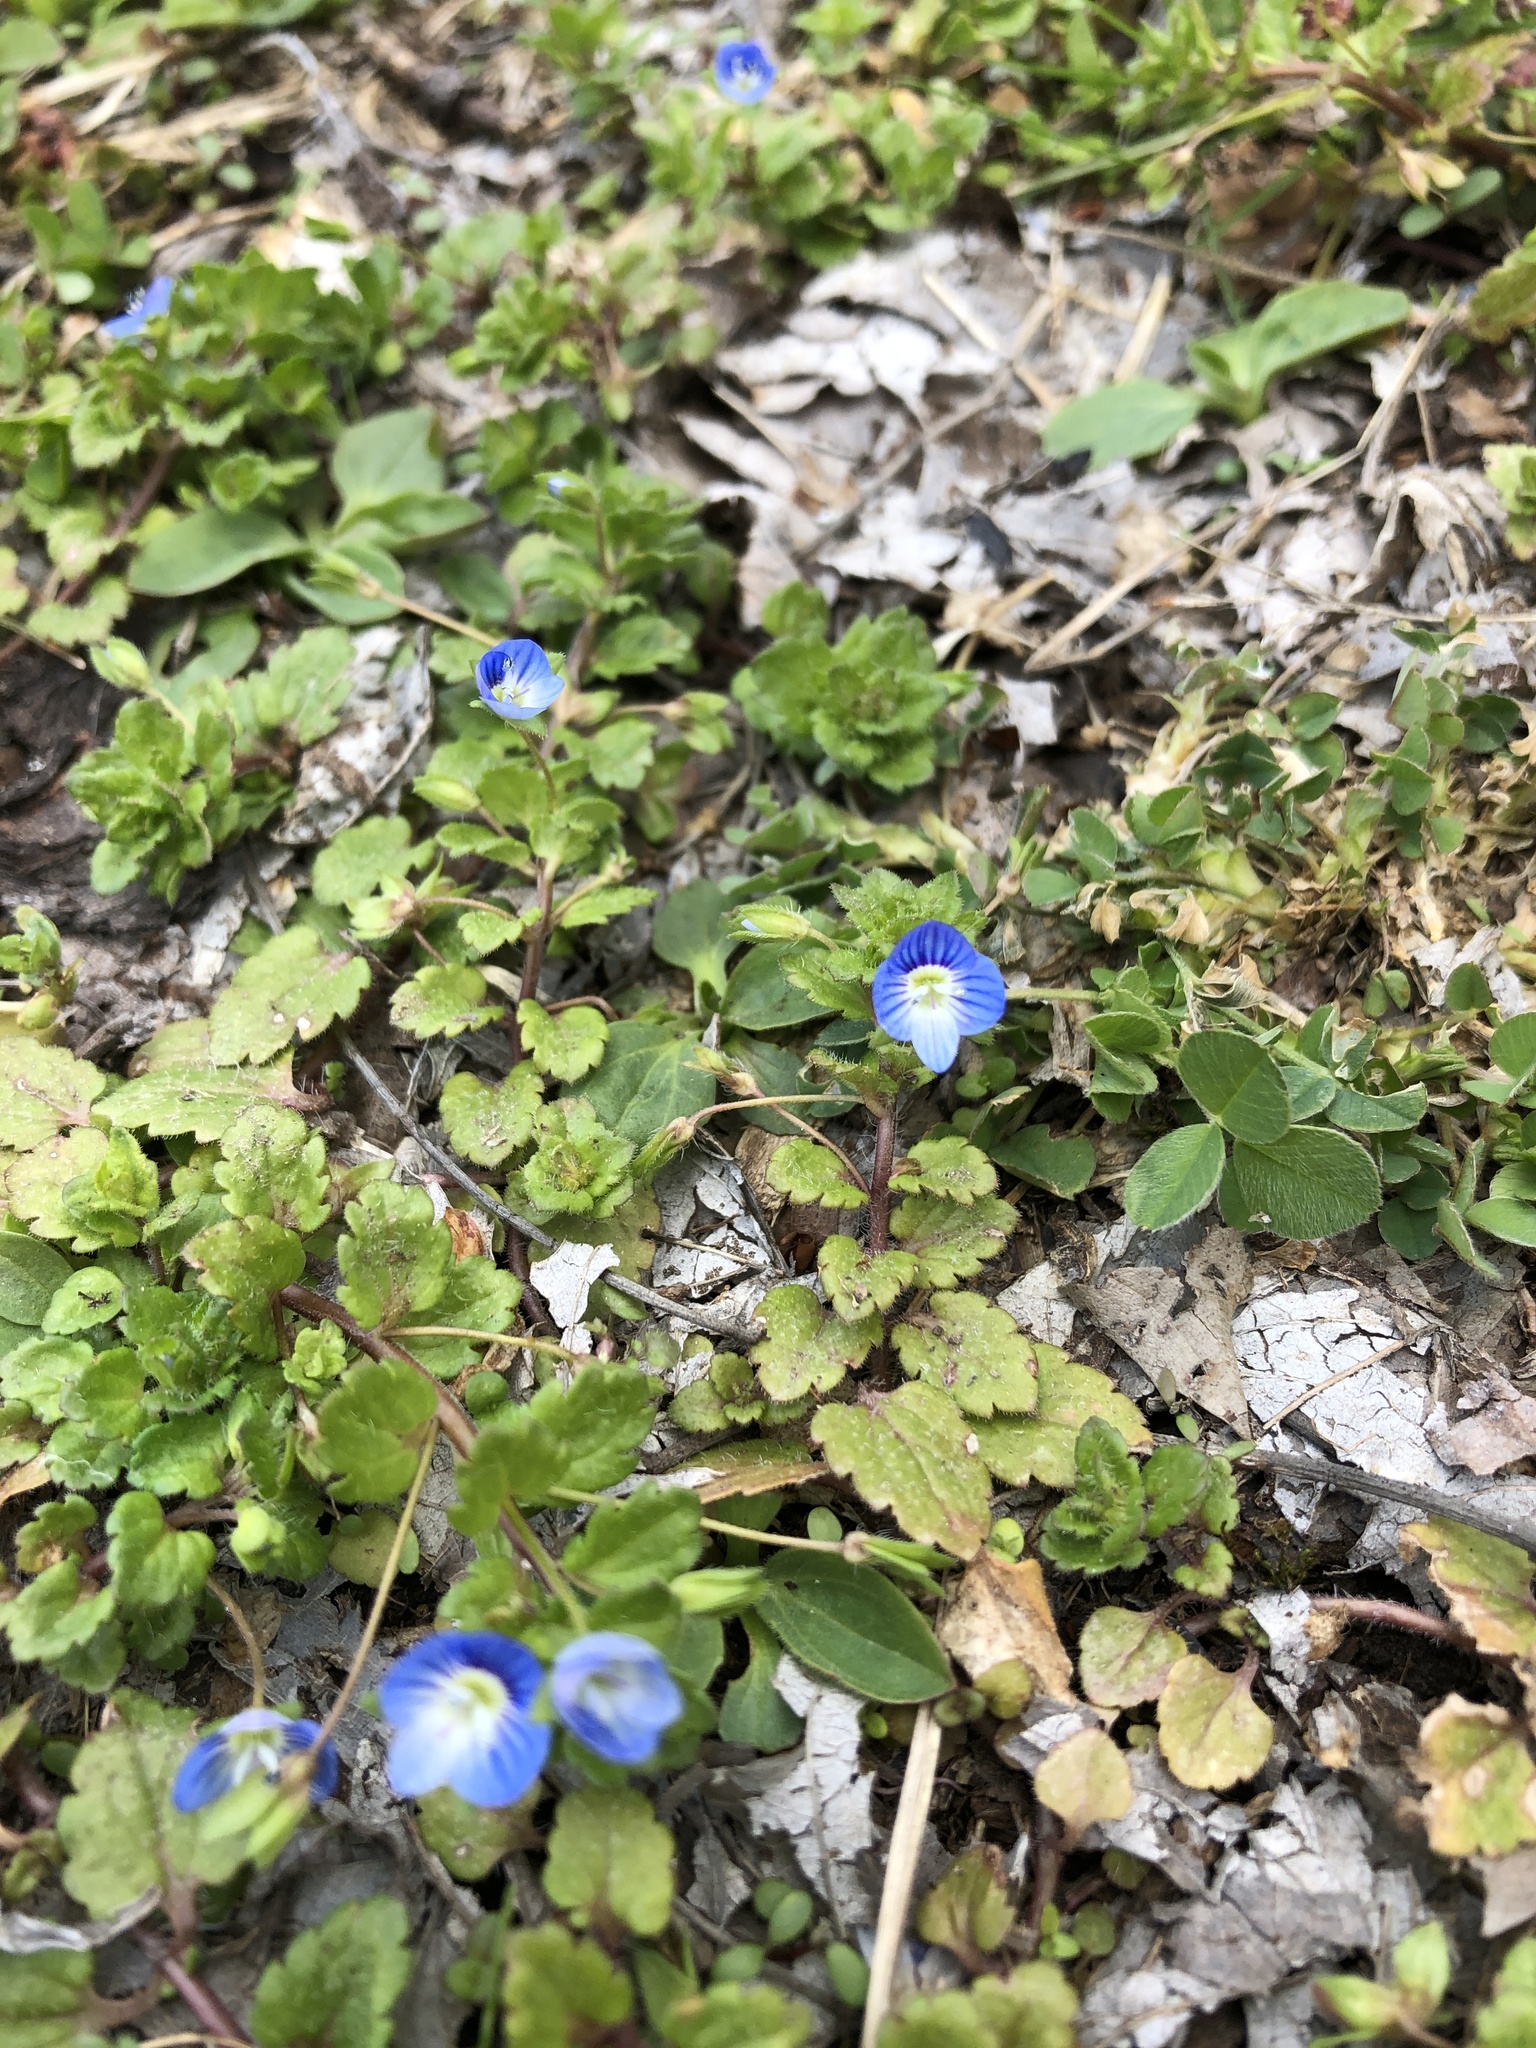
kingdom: Plantae
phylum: Tracheophyta
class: Magnoliopsida
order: Lamiales
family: Plantaginaceae
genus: Veronica
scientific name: Veronica persica
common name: Common field-speedwell
